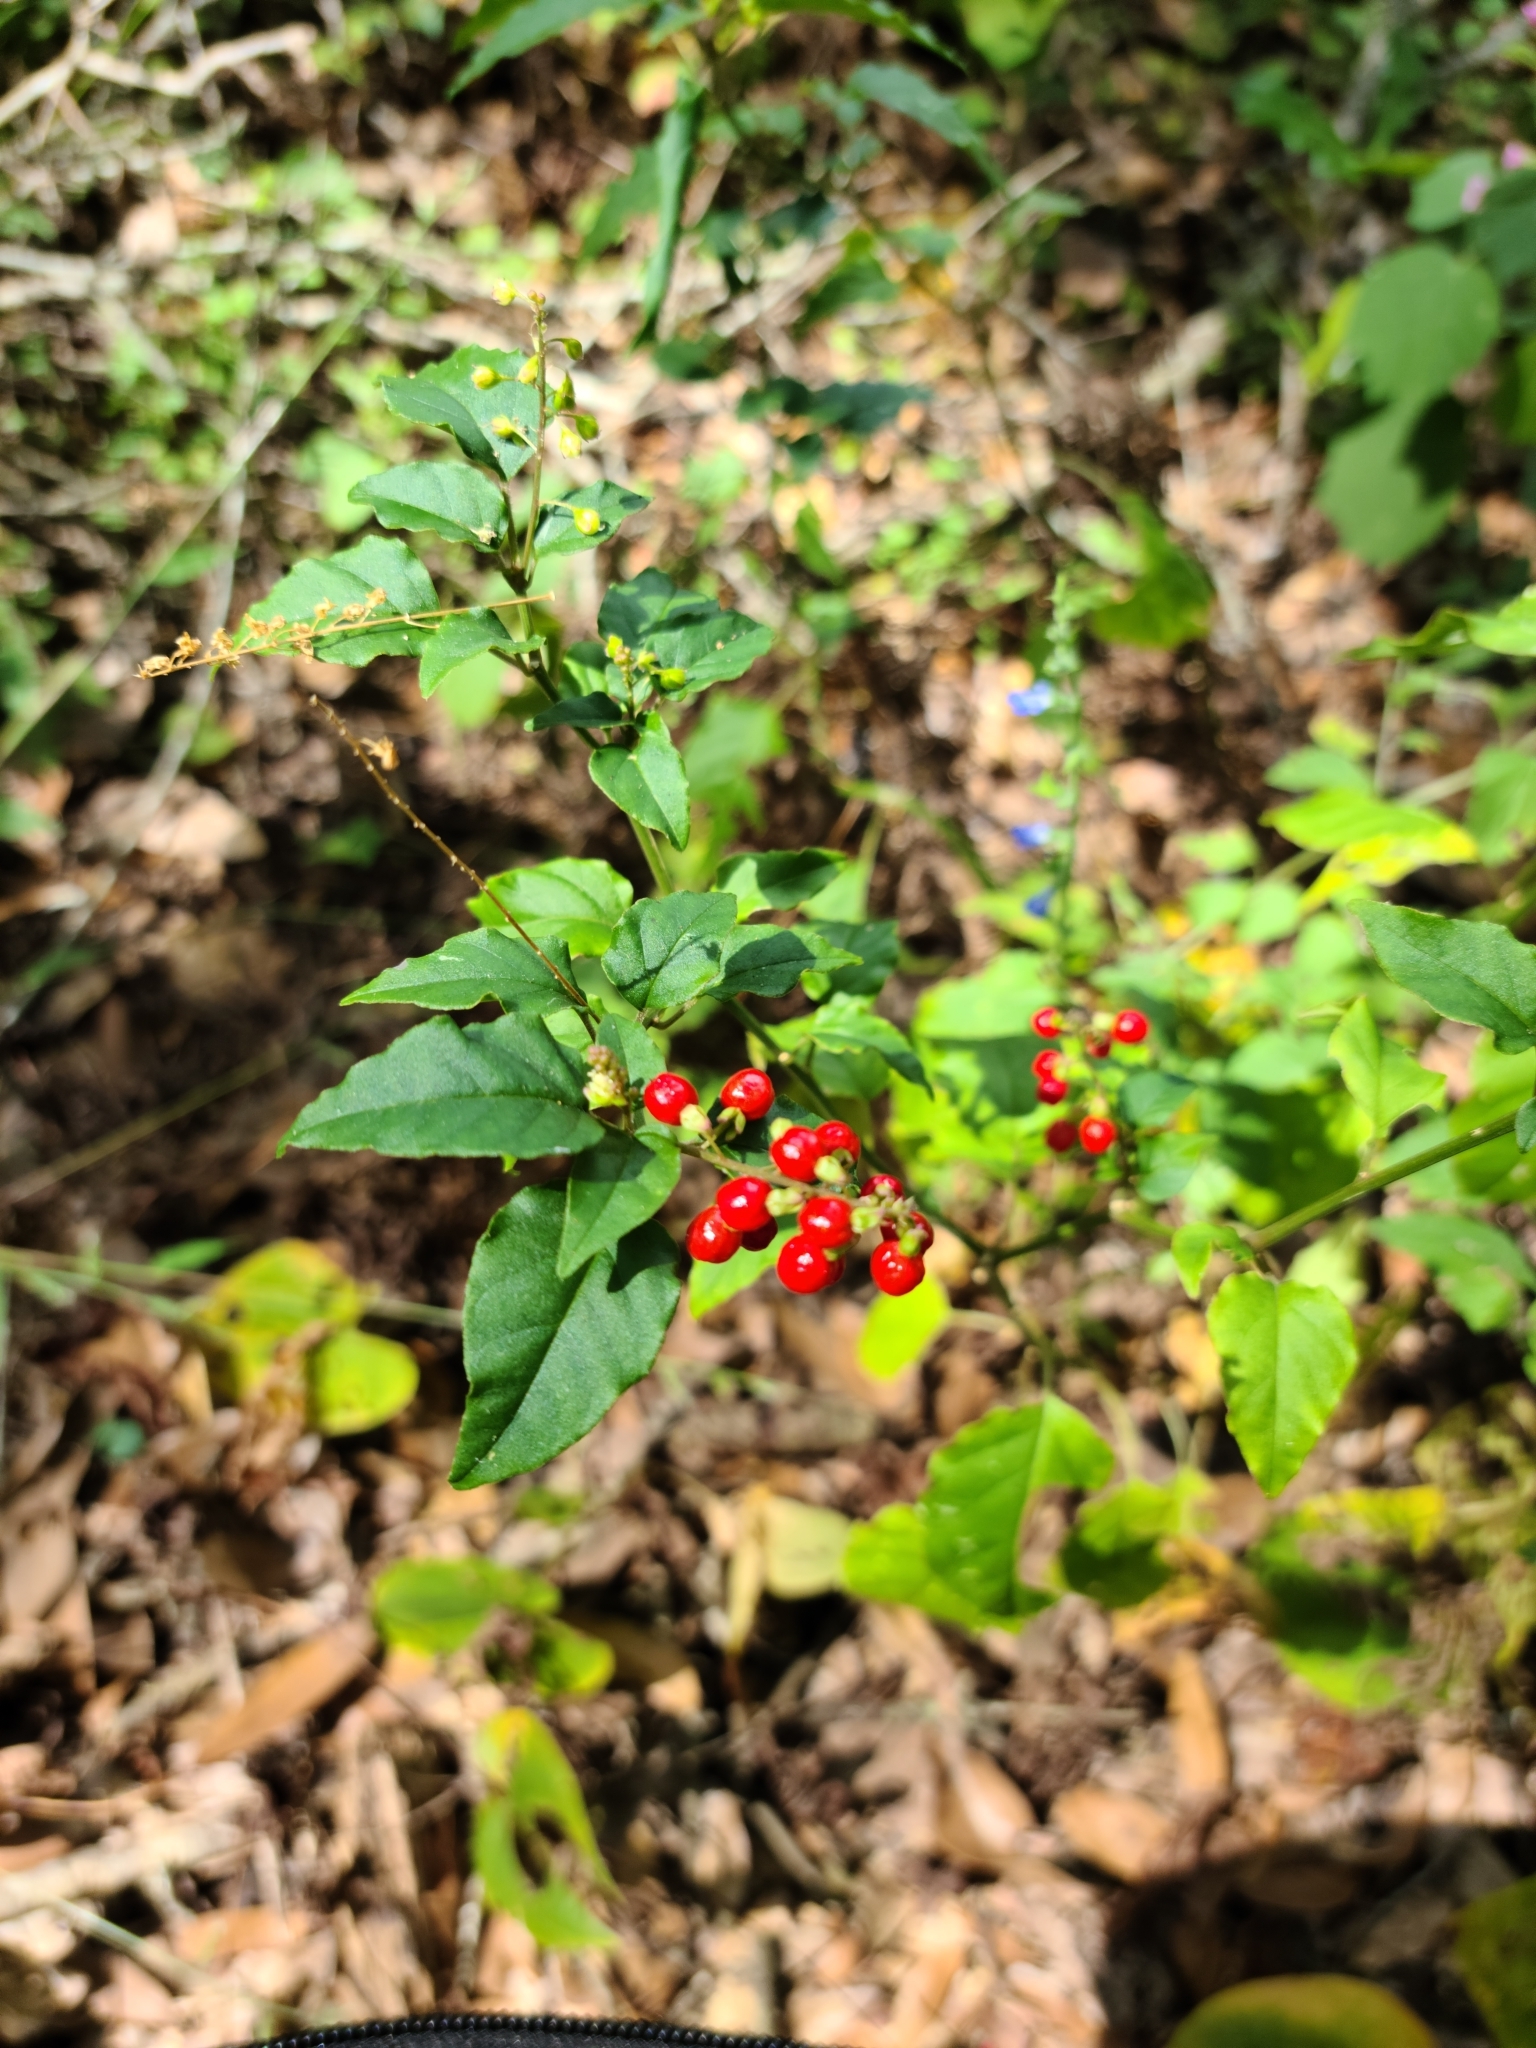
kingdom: Plantae
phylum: Tracheophyta
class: Magnoliopsida
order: Caryophyllales
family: Phytolaccaceae
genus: Rivina
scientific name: Rivina humilis
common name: Rougeplant
